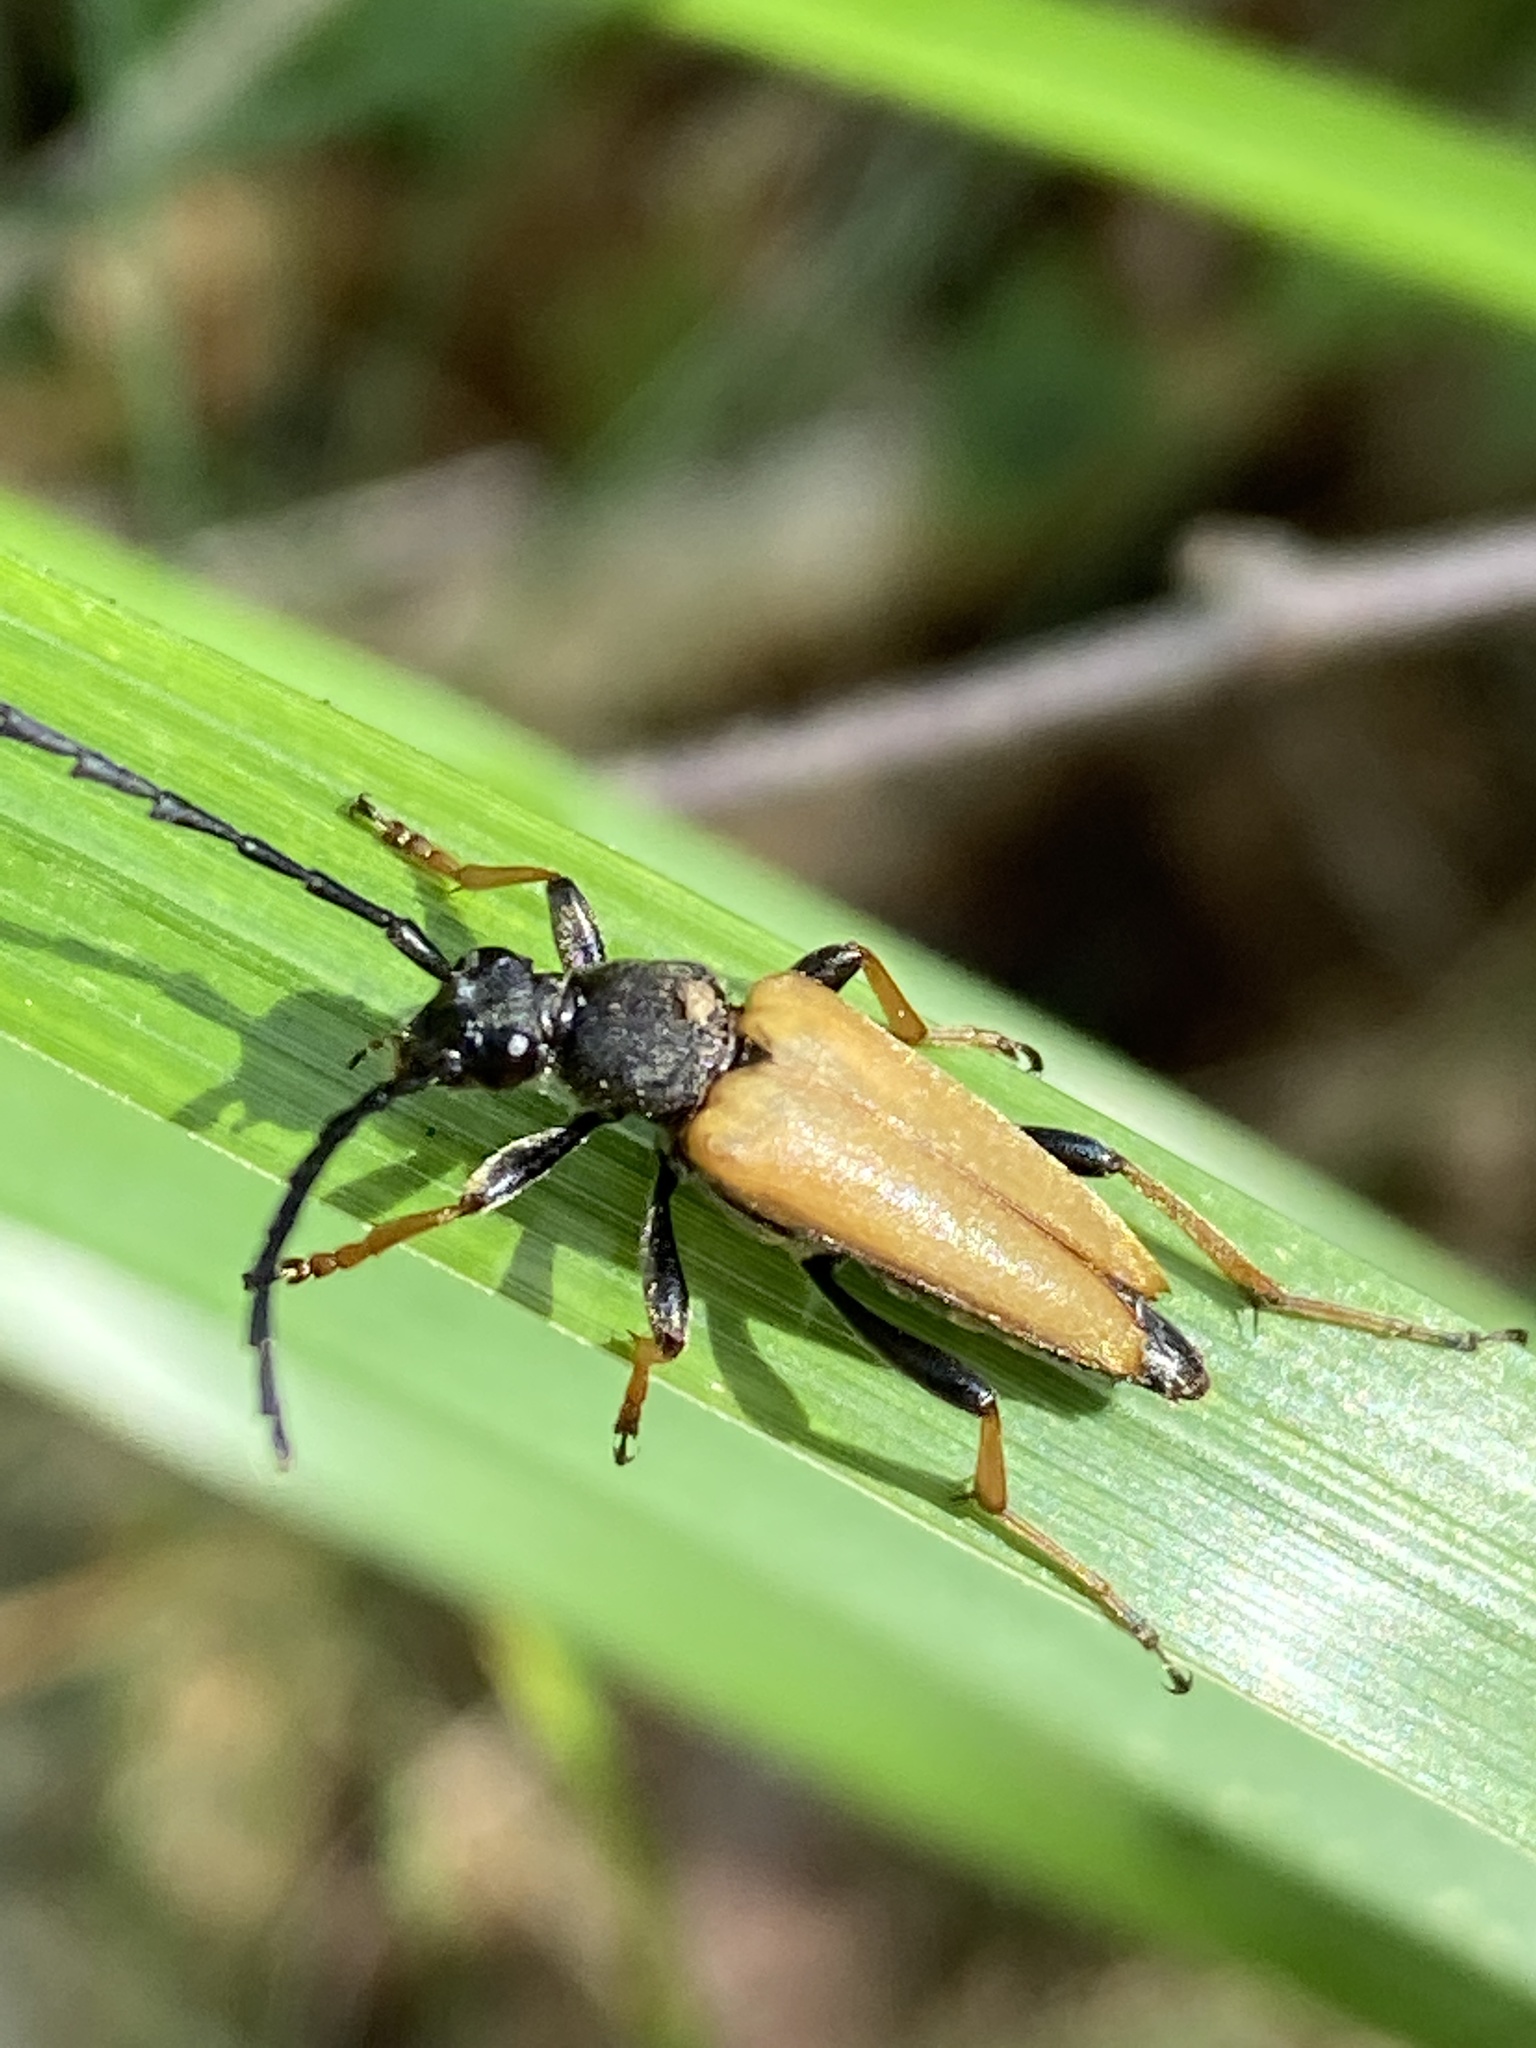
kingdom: Animalia
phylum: Arthropoda
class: Insecta
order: Coleoptera
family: Cerambycidae
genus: Stictoleptura
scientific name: Stictoleptura rubra
